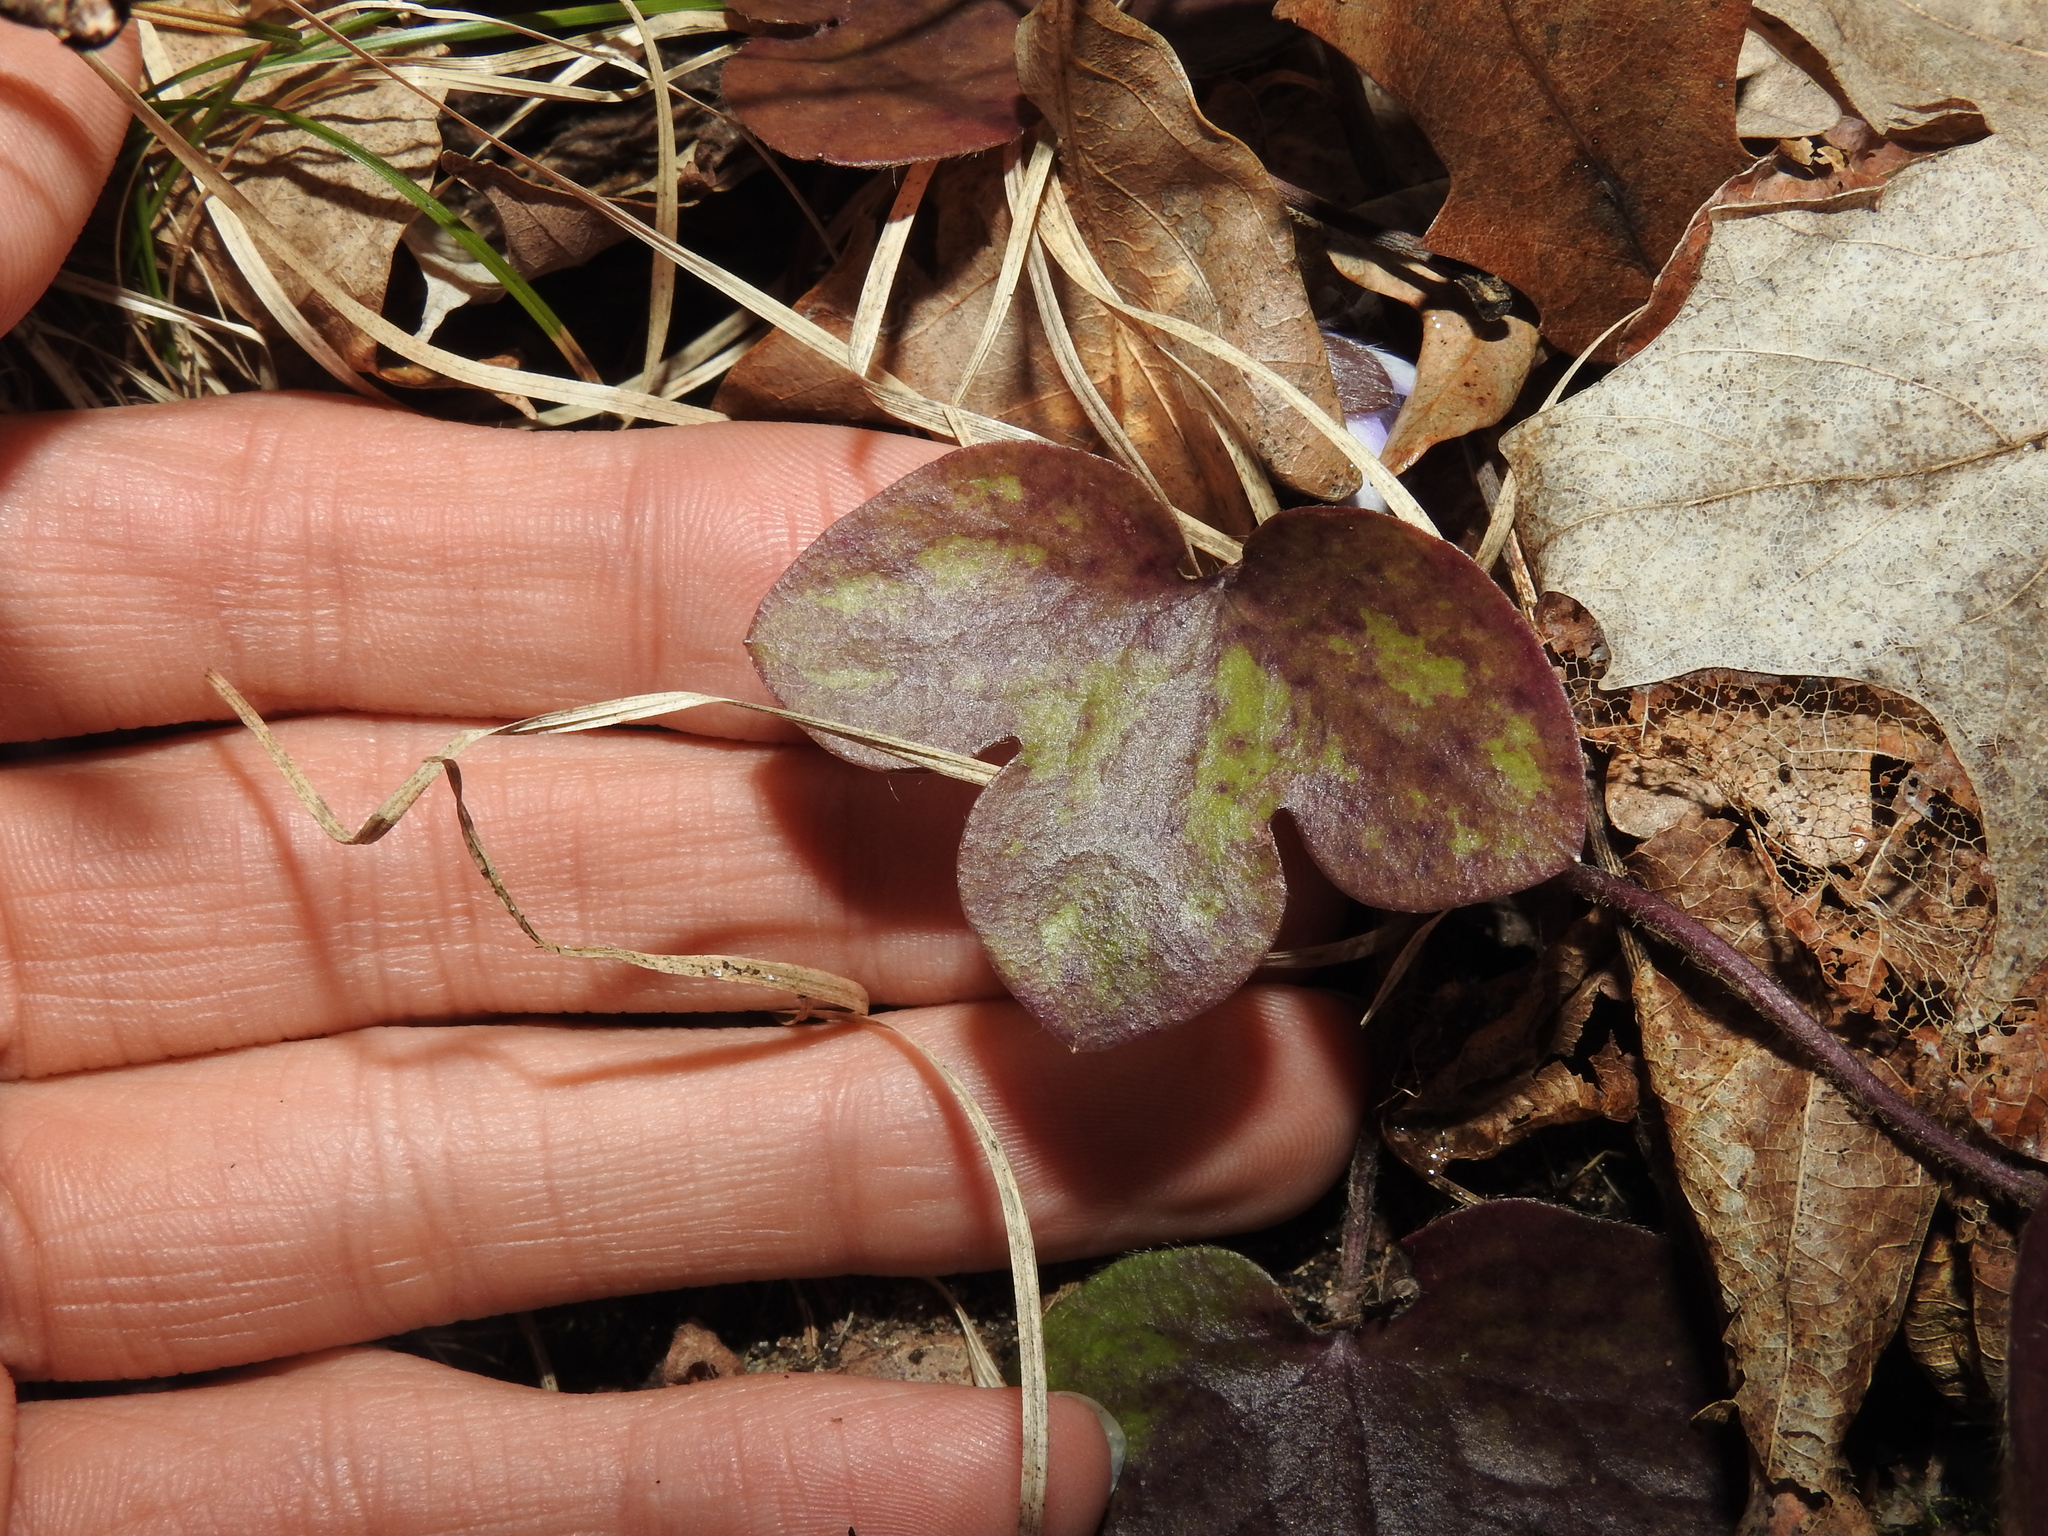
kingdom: Plantae
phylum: Tracheophyta
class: Magnoliopsida
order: Ranunculales
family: Ranunculaceae
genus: Hepatica
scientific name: Hepatica americana
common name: American hepatica
